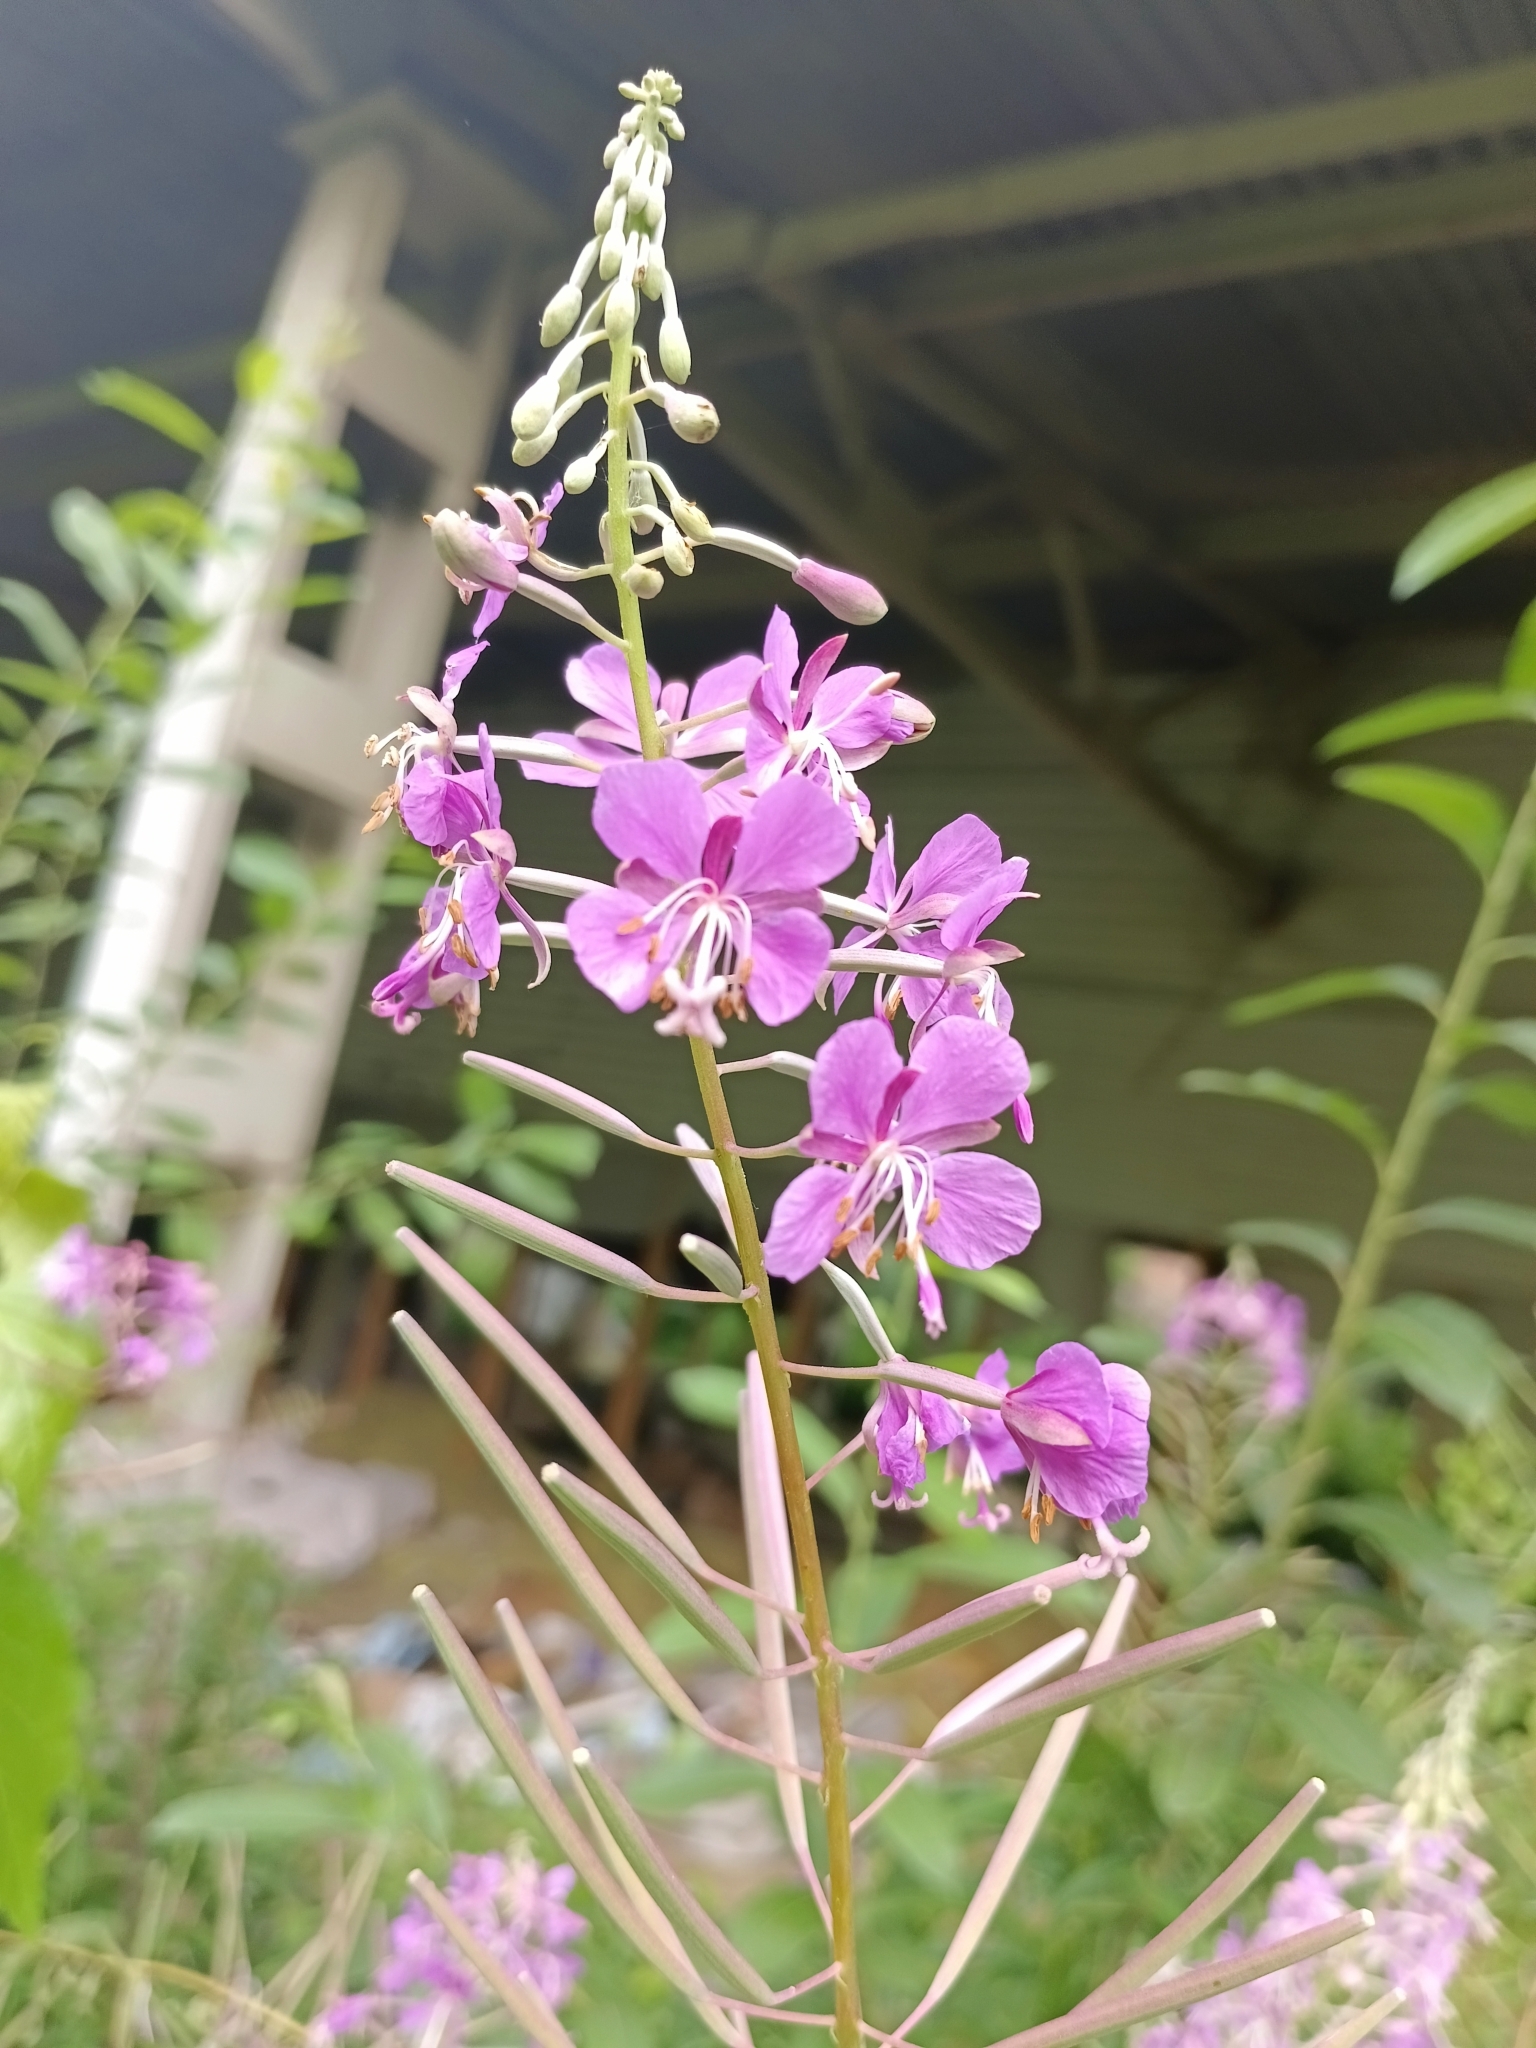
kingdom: Plantae
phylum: Tracheophyta
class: Magnoliopsida
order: Myrtales
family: Onagraceae
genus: Chamaenerion
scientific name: Chamaenerion angustifolium
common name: Fireweed
